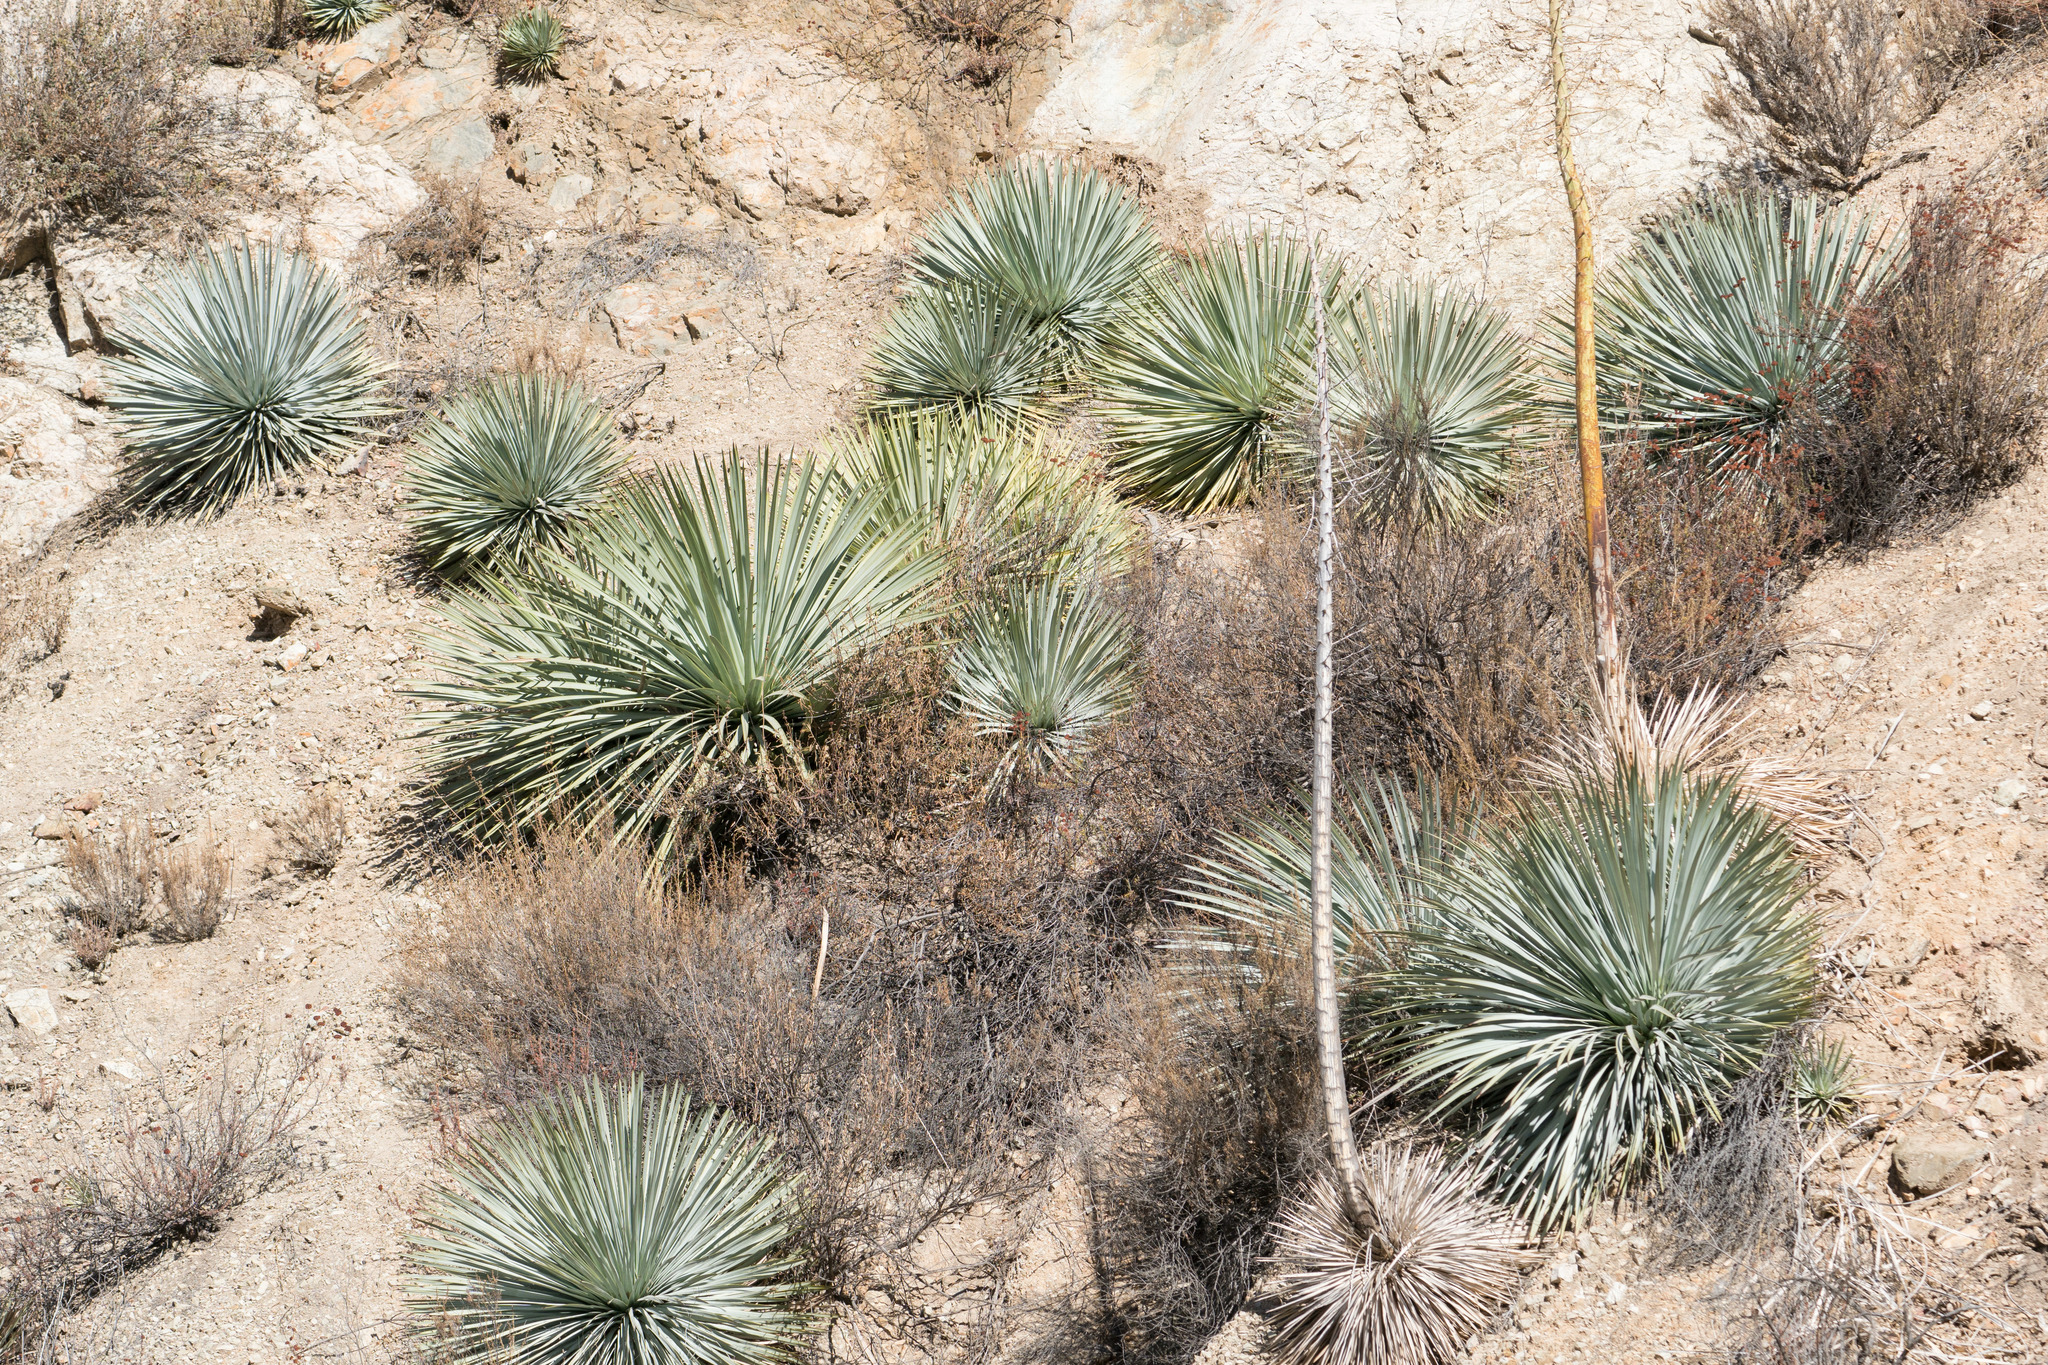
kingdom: Plantae
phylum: Tracheophyta
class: Liliopsida
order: Asparagales
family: Asparagaceae
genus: Hesperoyucca
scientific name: Hesperoyucca whipplei
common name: Our lord's-candle
